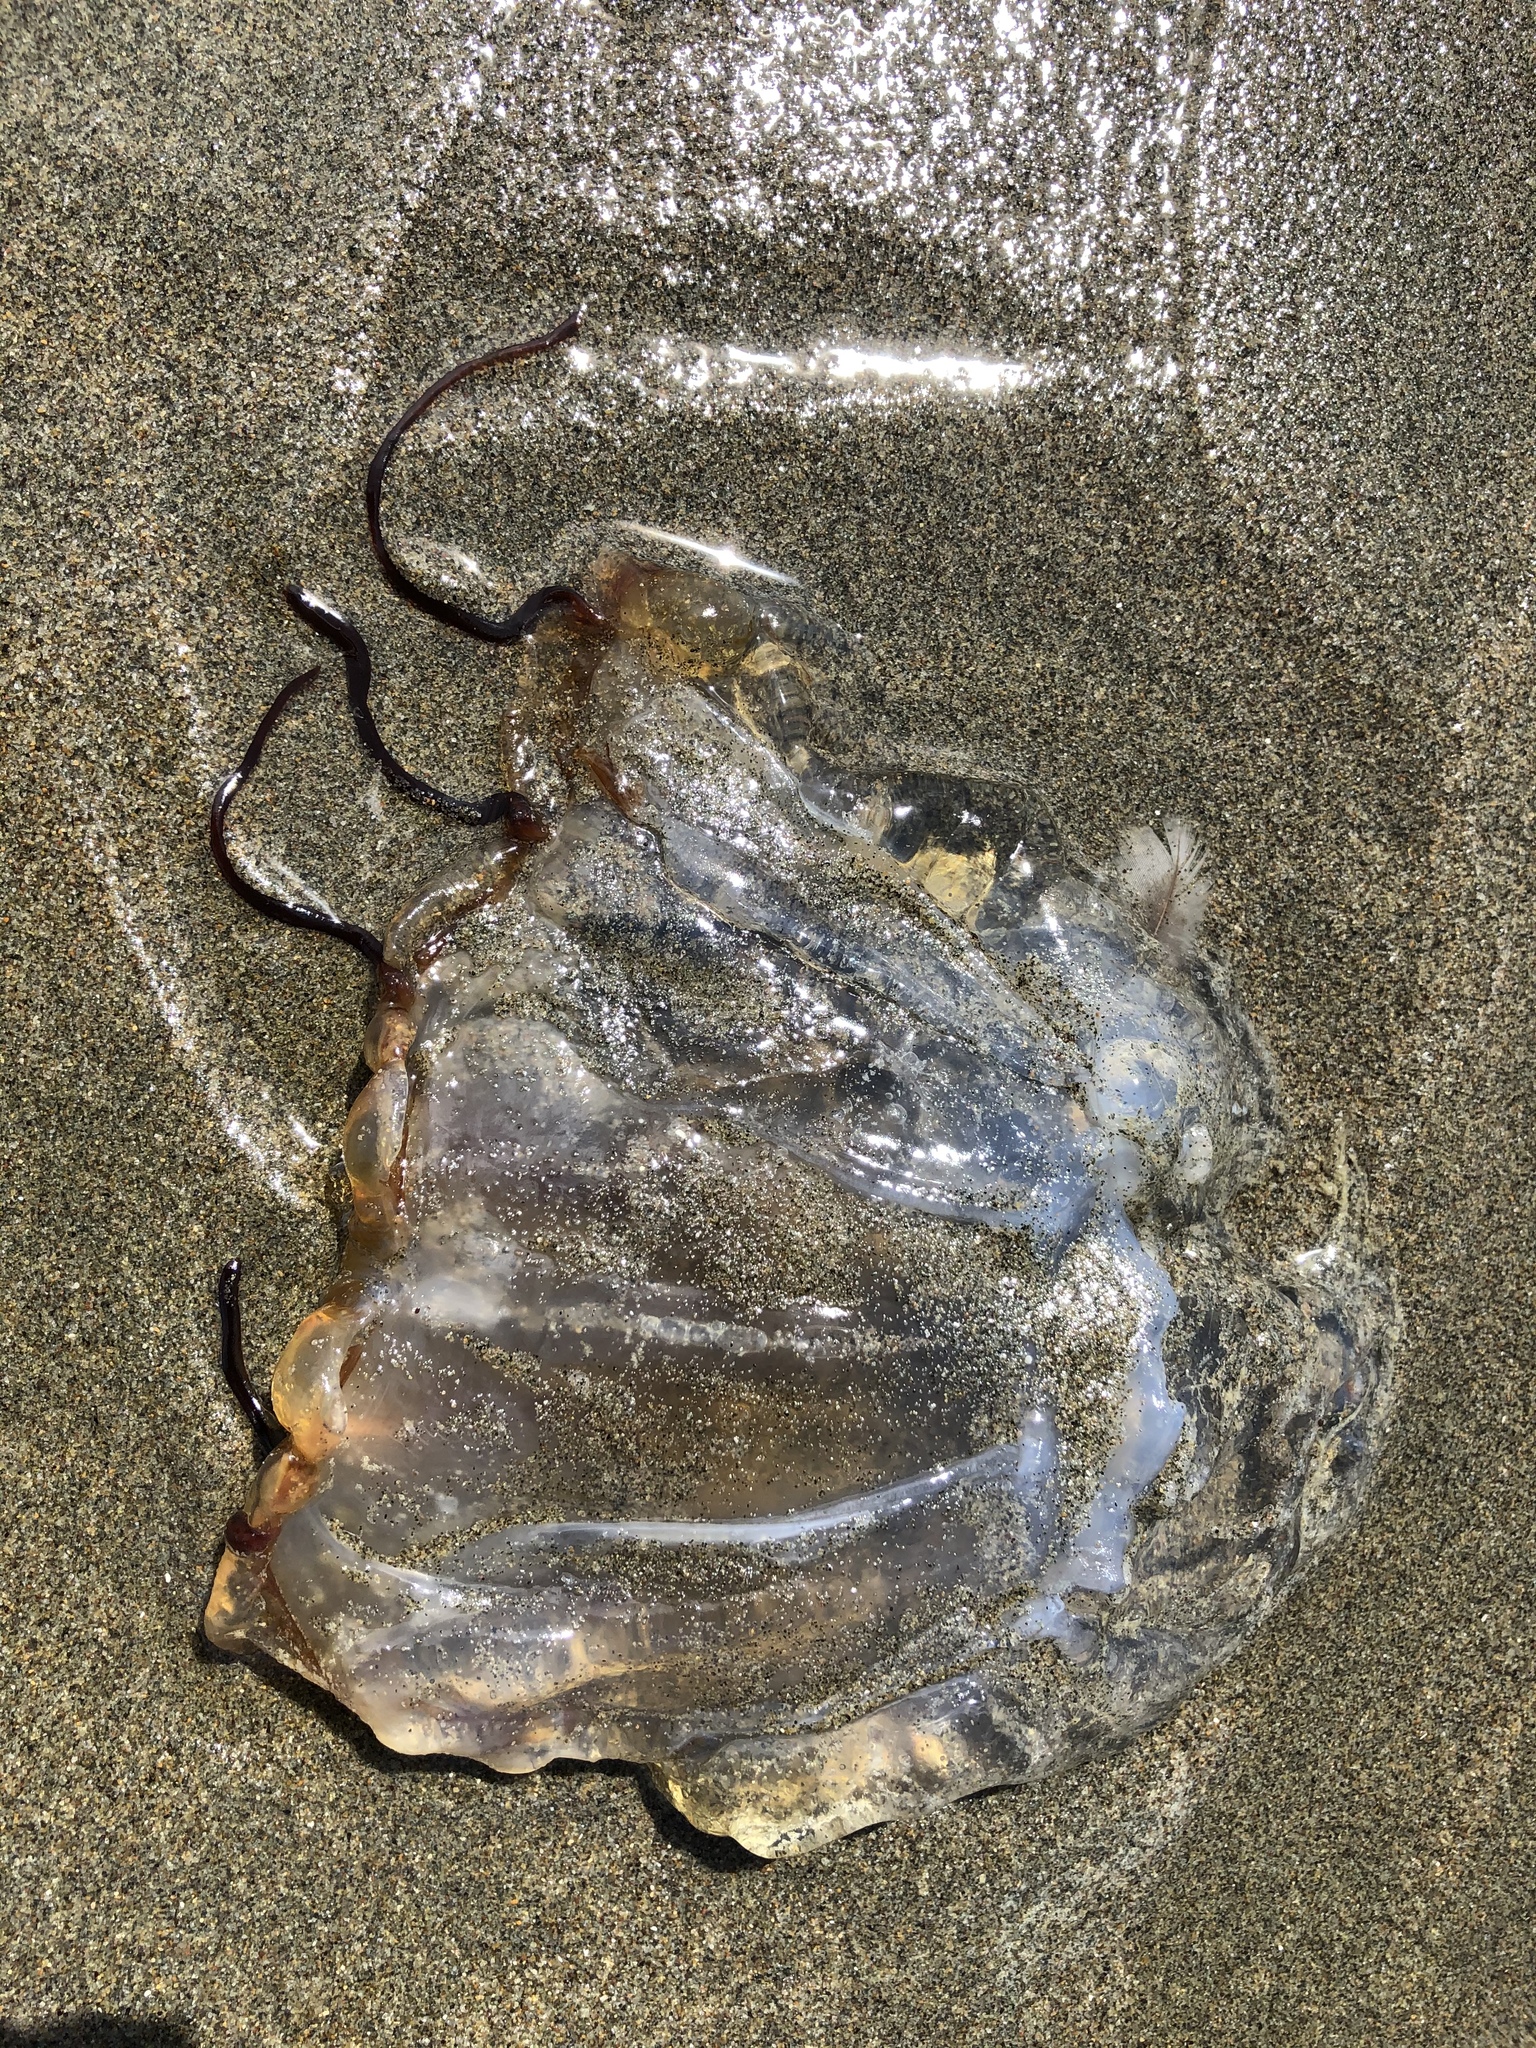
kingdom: Animalia
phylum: Cnidaria
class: Scyphozoa
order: Semaeostomeae
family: Pelagiidae
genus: Chrysaora
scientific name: Chrysaora fuscescens
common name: Sea nettle
